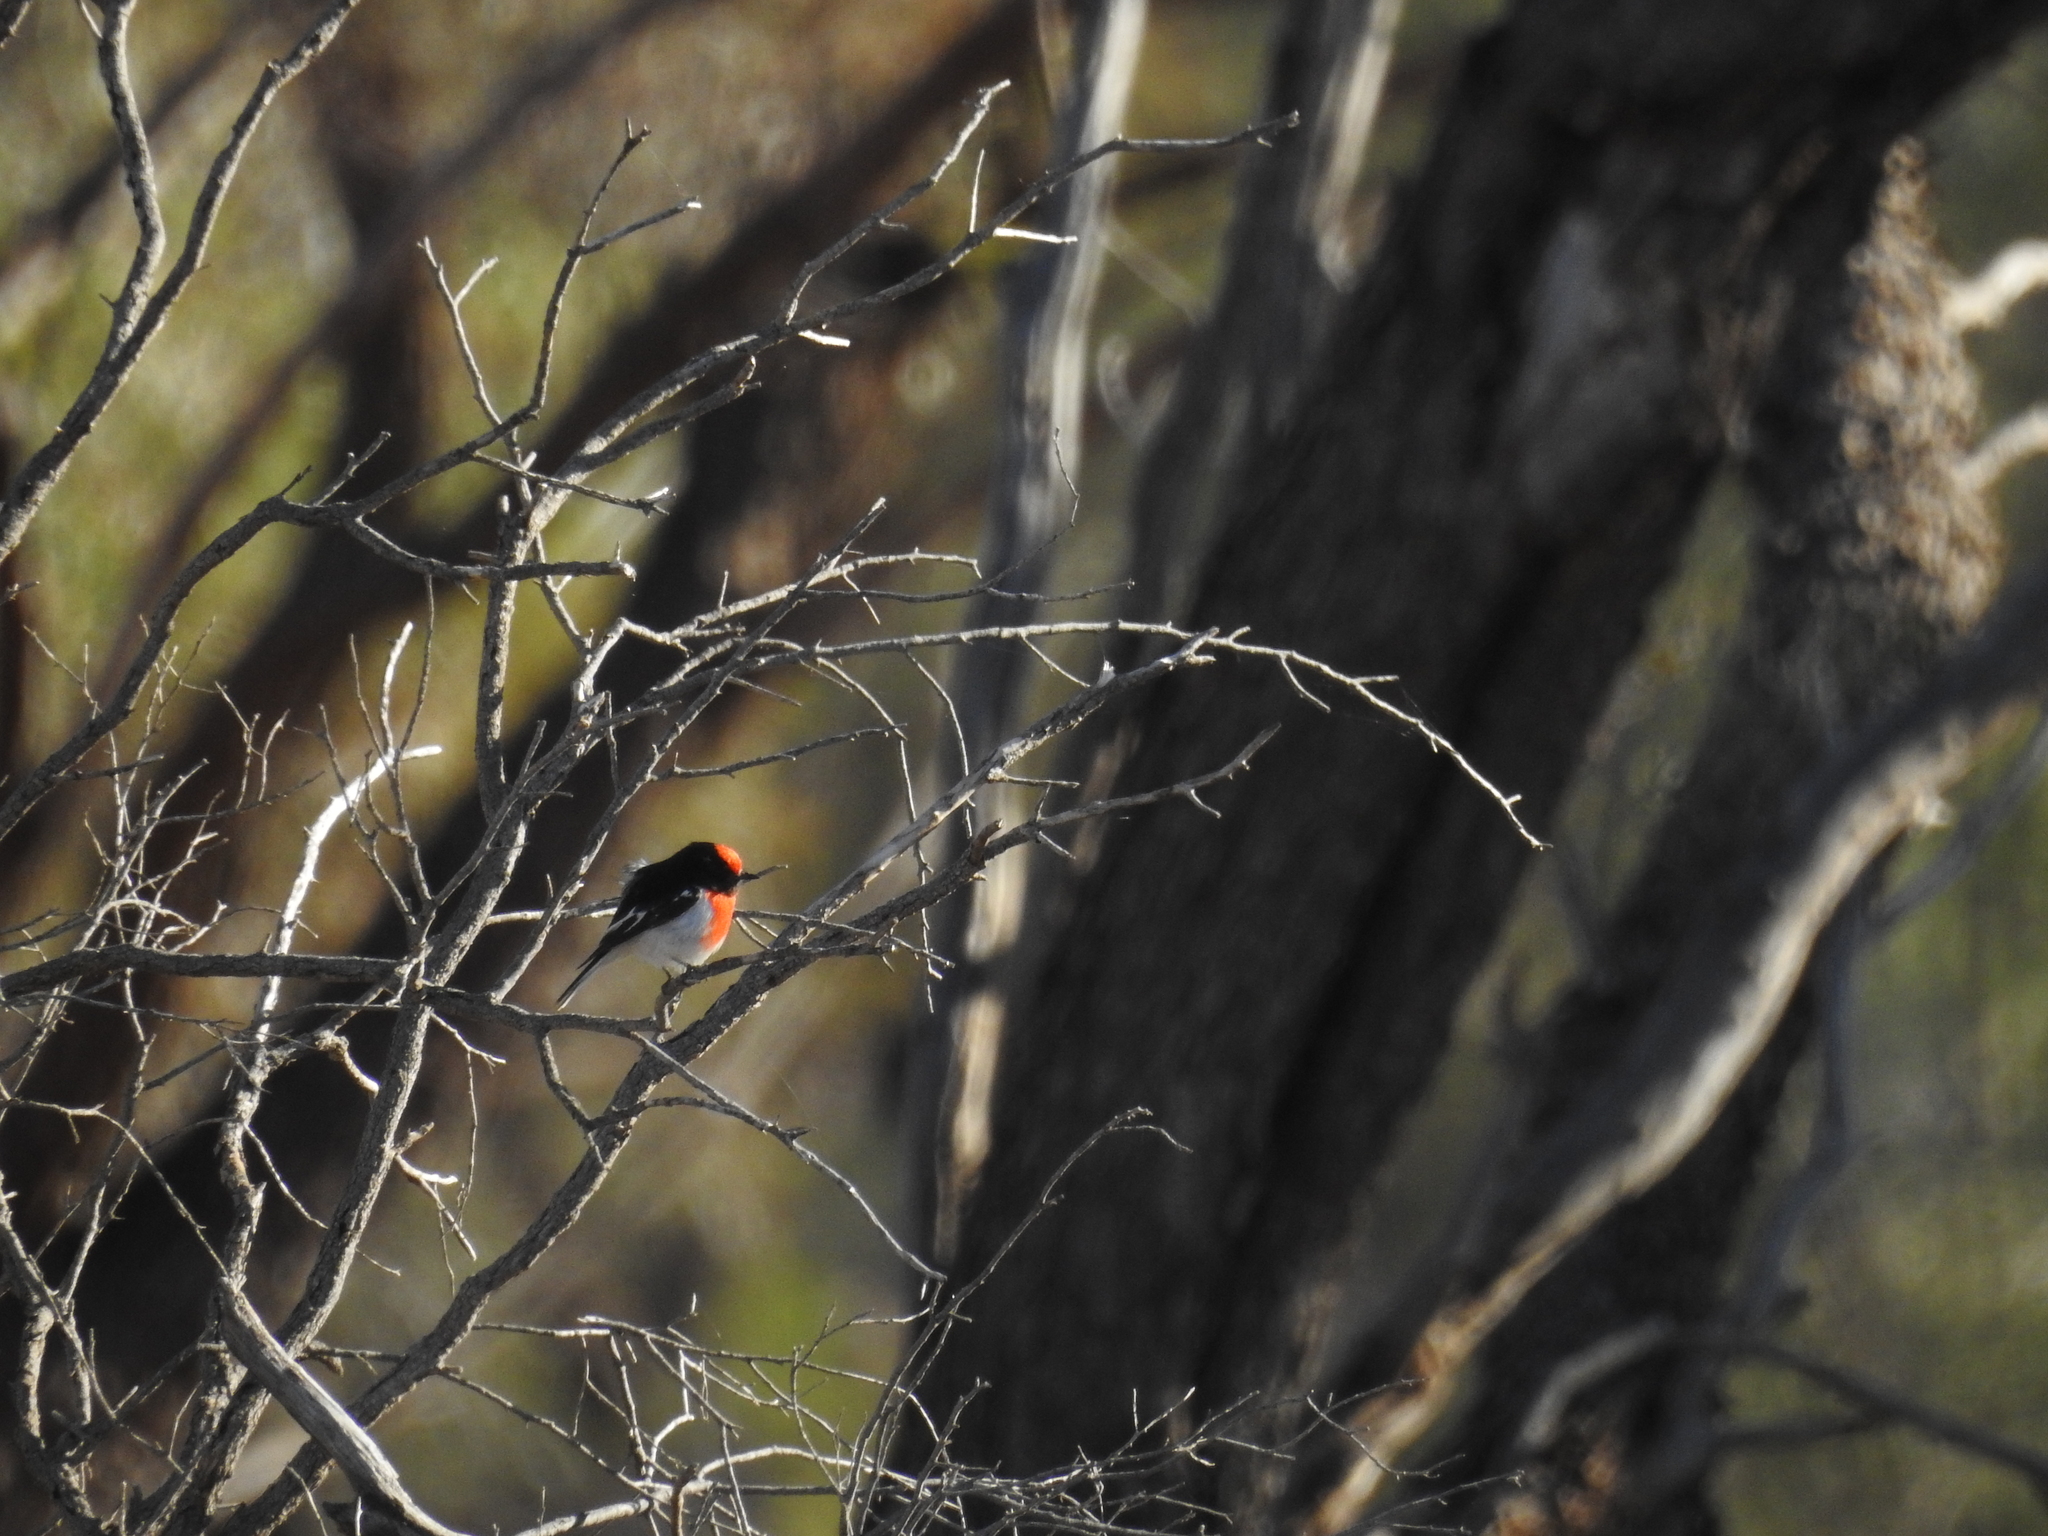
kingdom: Animalia
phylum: Chordata
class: Aves
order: Passeriformes
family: Petroicidae
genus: Petroica
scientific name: Petroica goodenovii
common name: Red-capped robin
